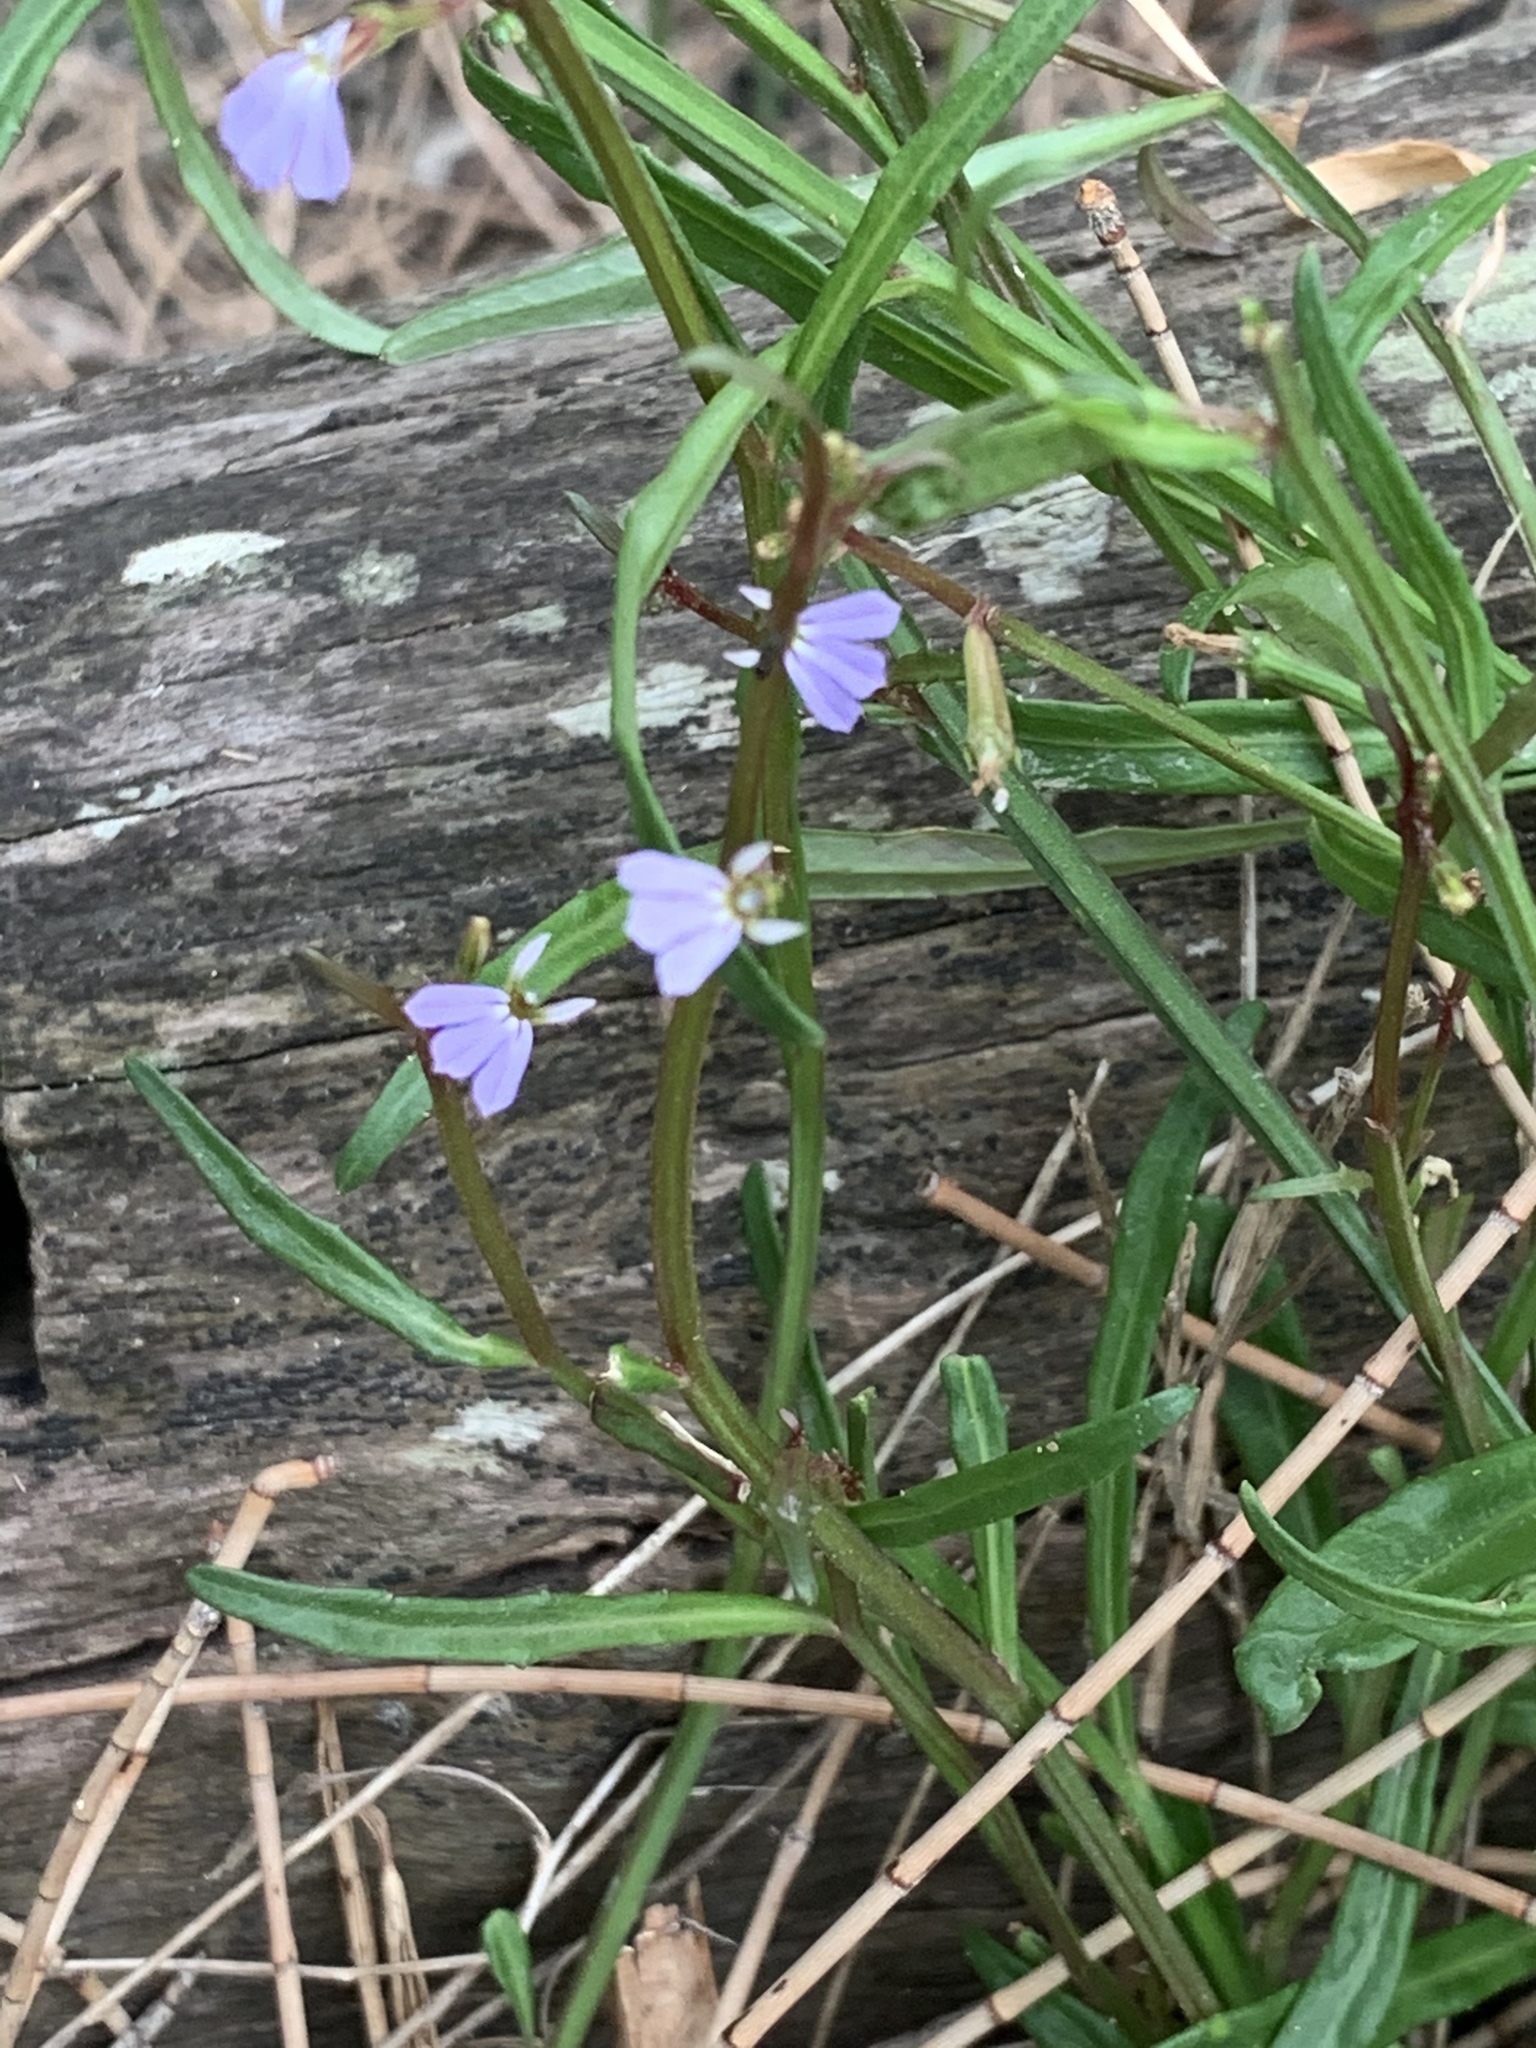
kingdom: Plantae
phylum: Tracheophyta
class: Magnoliopsida
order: Asterales
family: Campanulaceae
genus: Lobelia
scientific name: Lobelia anceps
